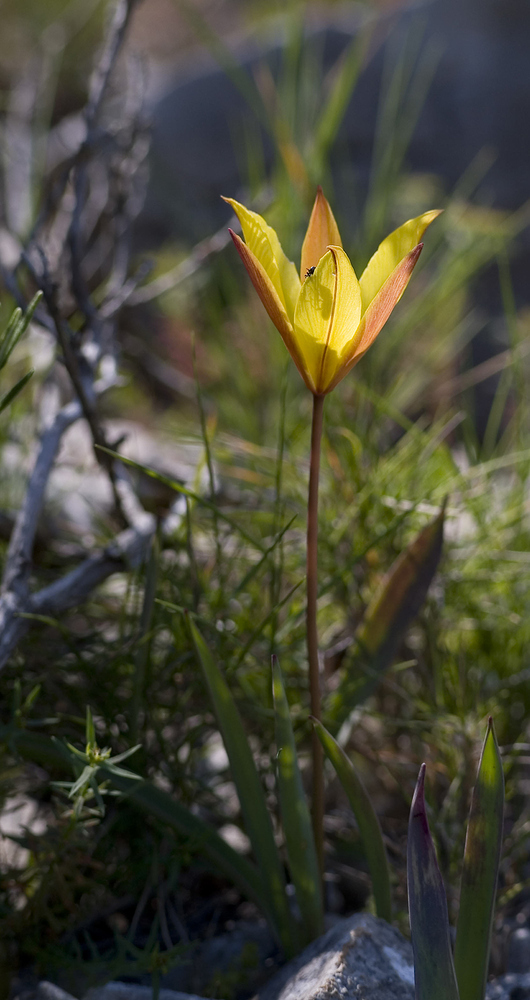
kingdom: Plantae
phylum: Tracheophyta
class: Liliopsida
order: Liliales
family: Liliaceae
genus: Tulipa
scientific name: Tulipa sylvestris
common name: Wild tulip
